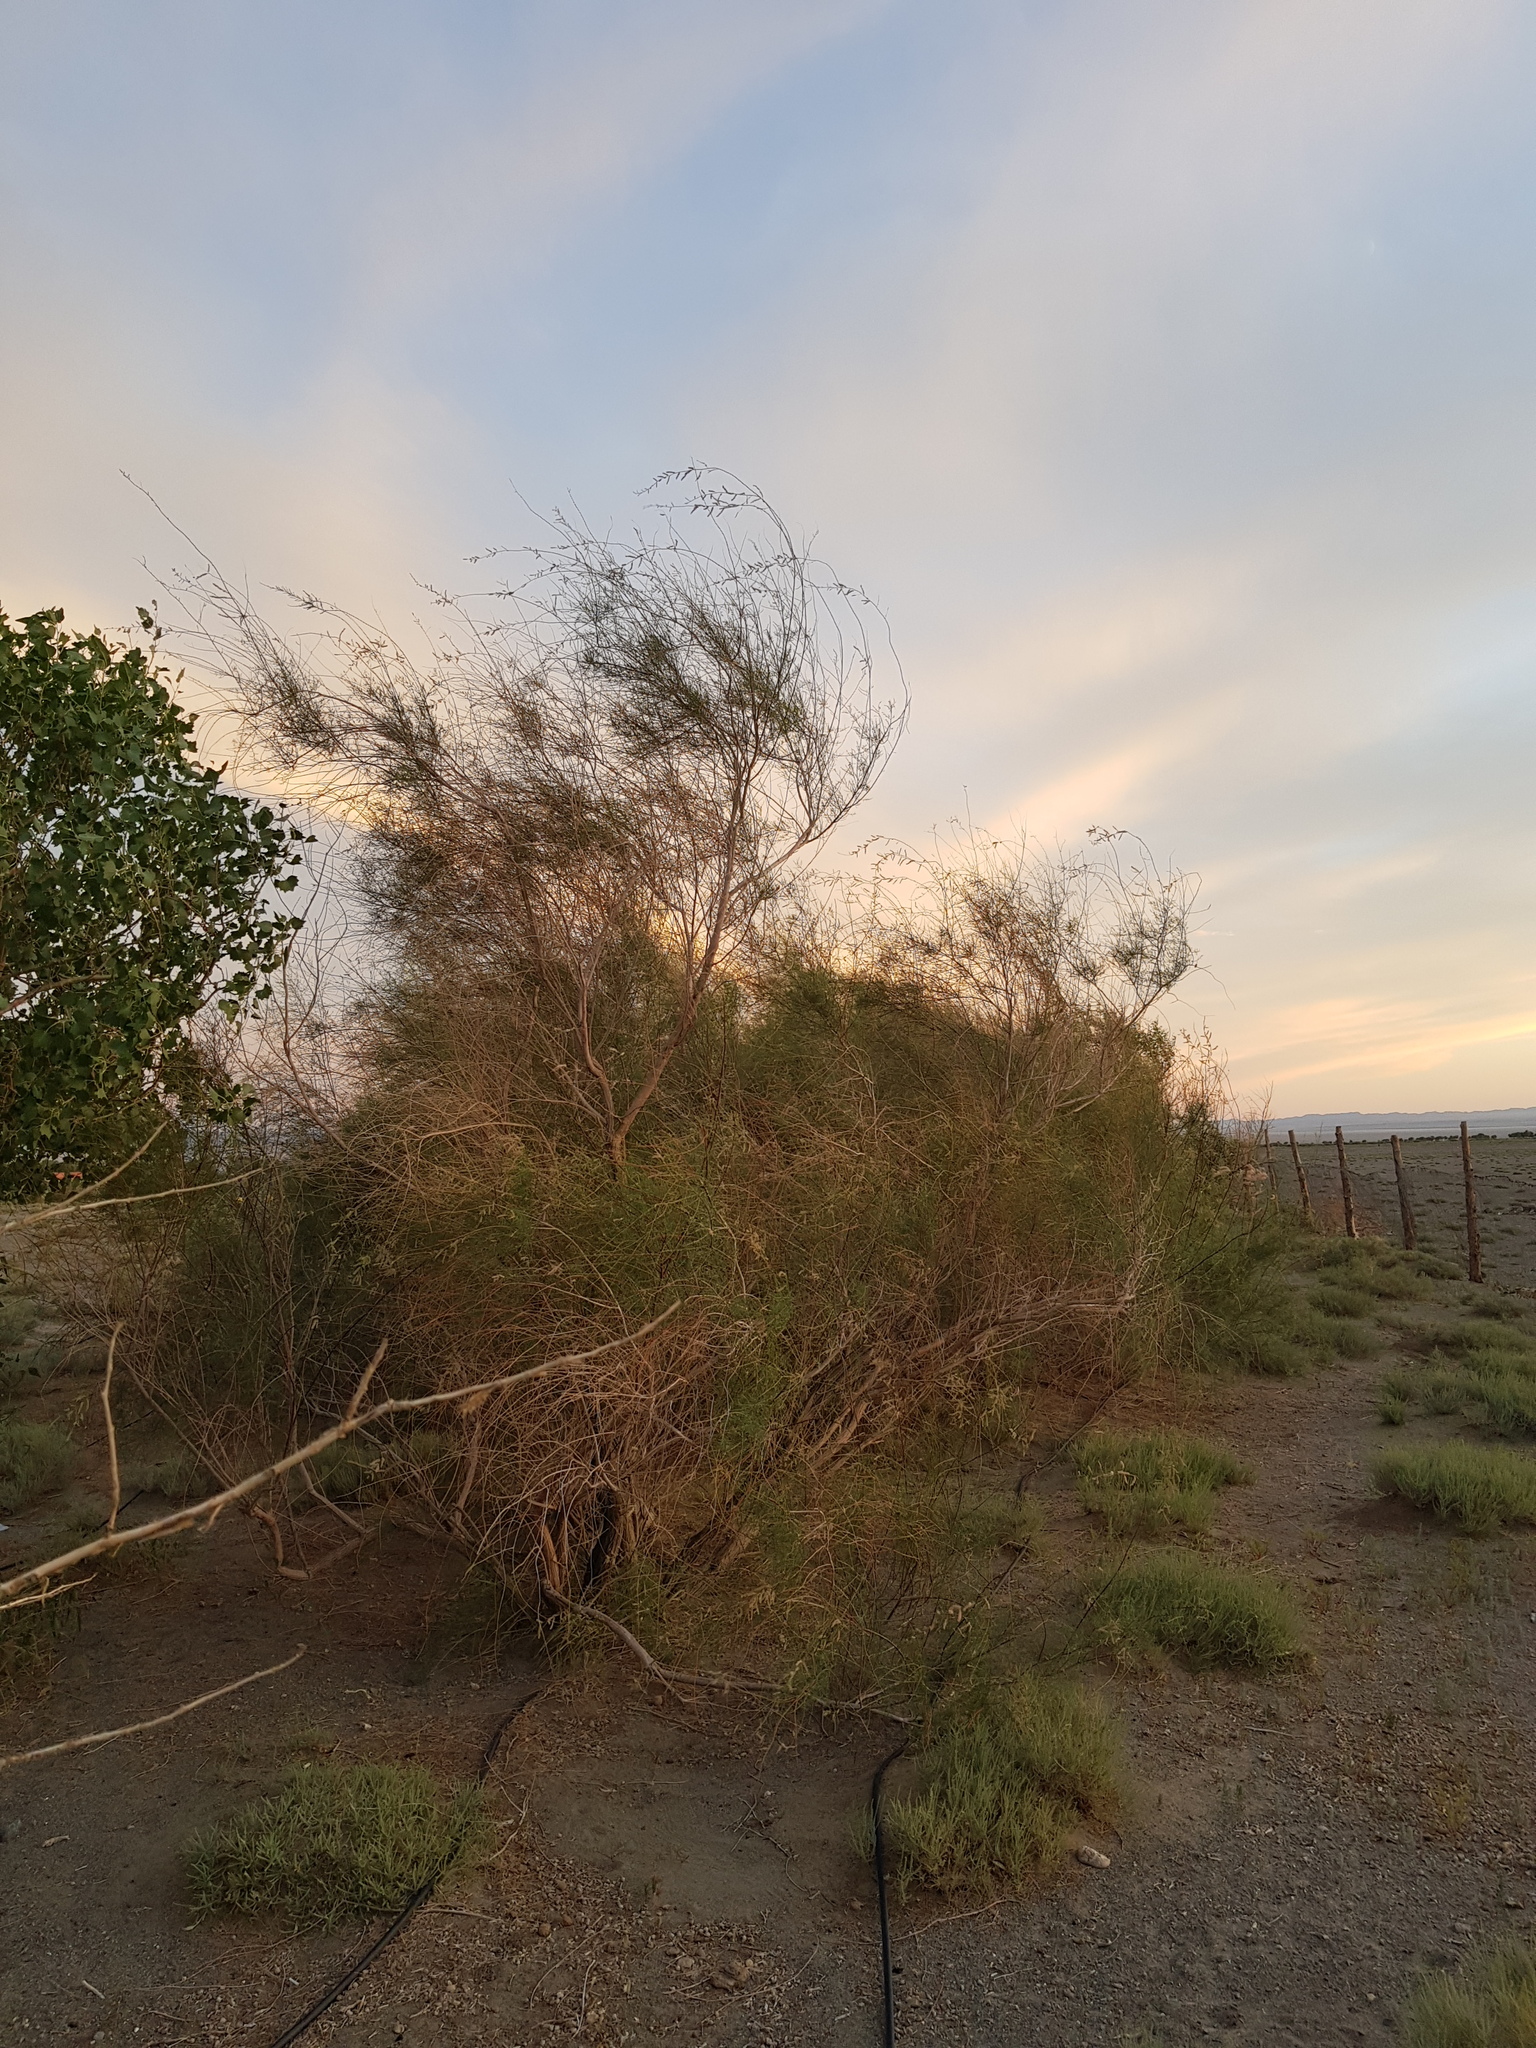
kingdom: Plantae
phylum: Tracheophyta
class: Magnoliopsida
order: Caryophyllales
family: Tamaricaceae
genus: Tamarix
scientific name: Tamarix ramosissima
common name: Pink tamarisk
